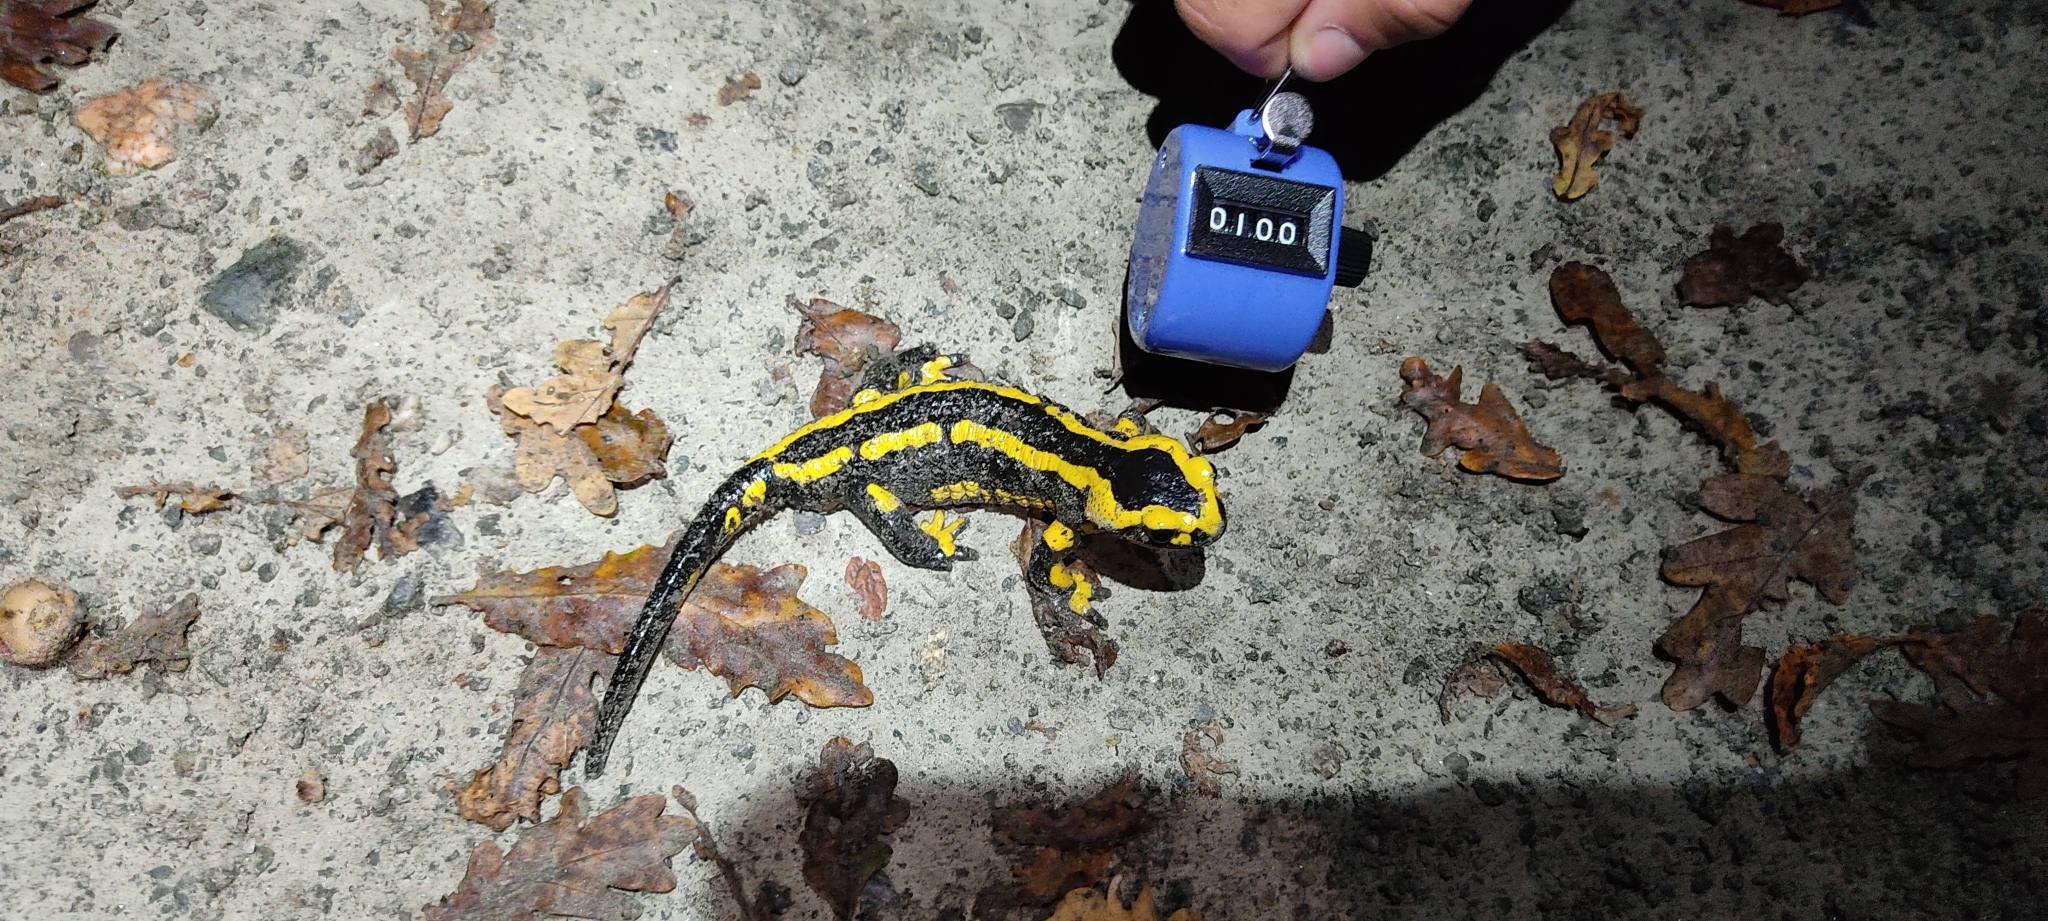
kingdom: Animalia
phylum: Chordata
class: Amphibia
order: Caudata
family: Salamandridae
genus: Salamandra
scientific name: Salamandra salamandra
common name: Fire salamander
